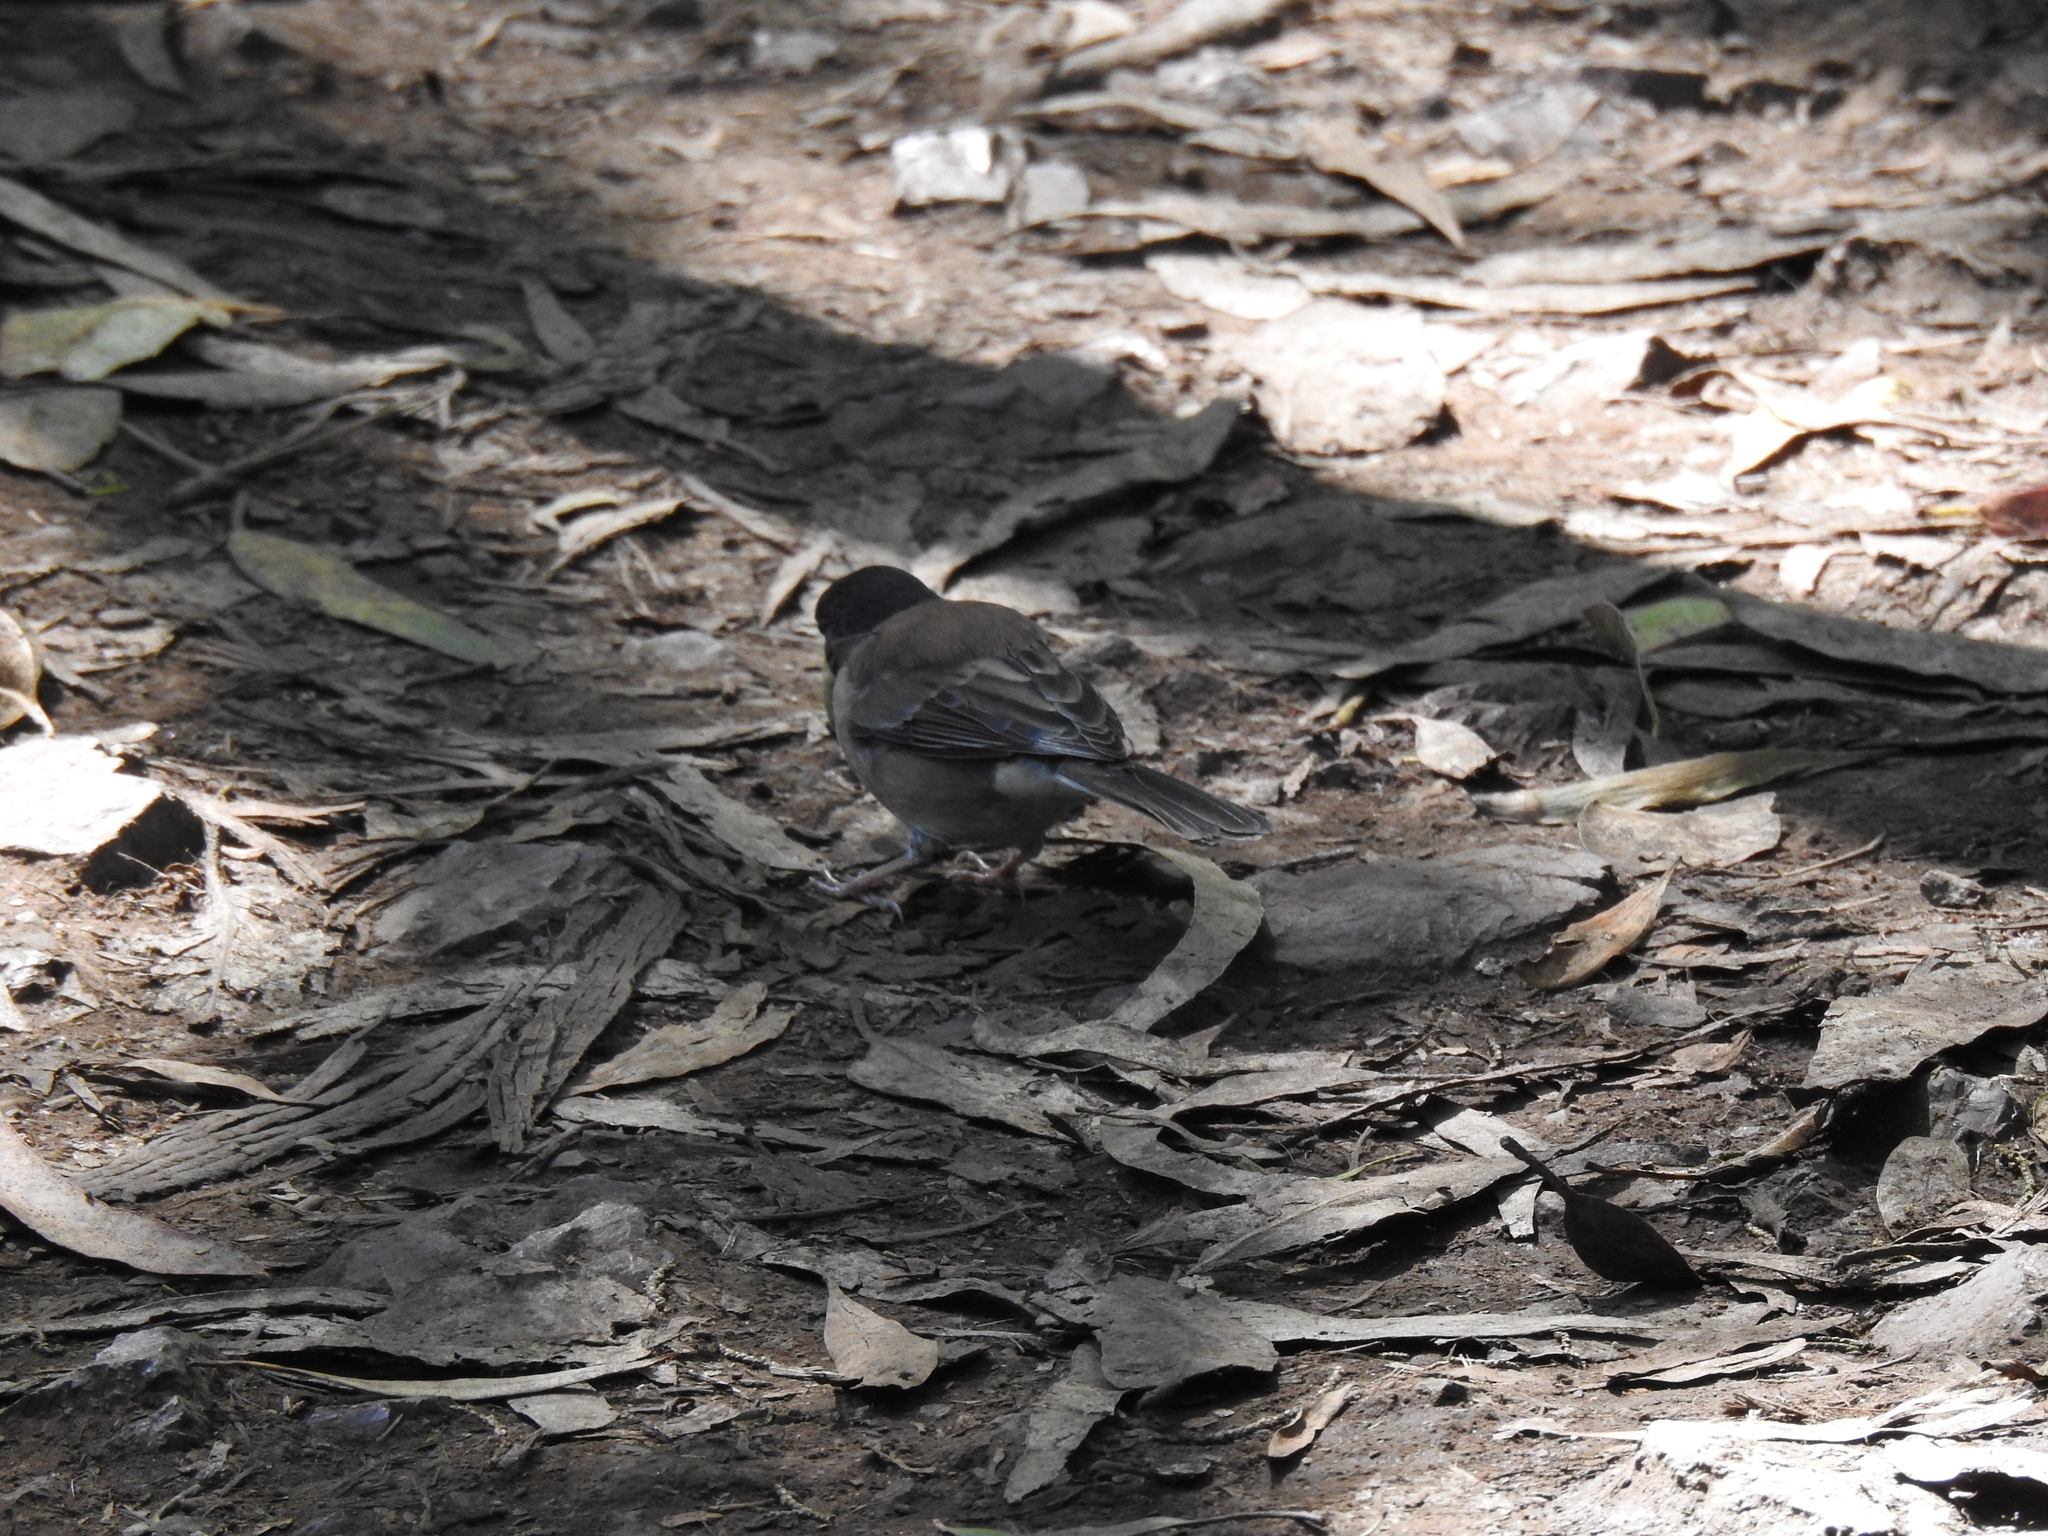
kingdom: Animalia
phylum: Chordata
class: Aves
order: Passeriformes
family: Passerellidae
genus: Junco
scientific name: Junco hyemalis
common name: Dark-eyed junco
